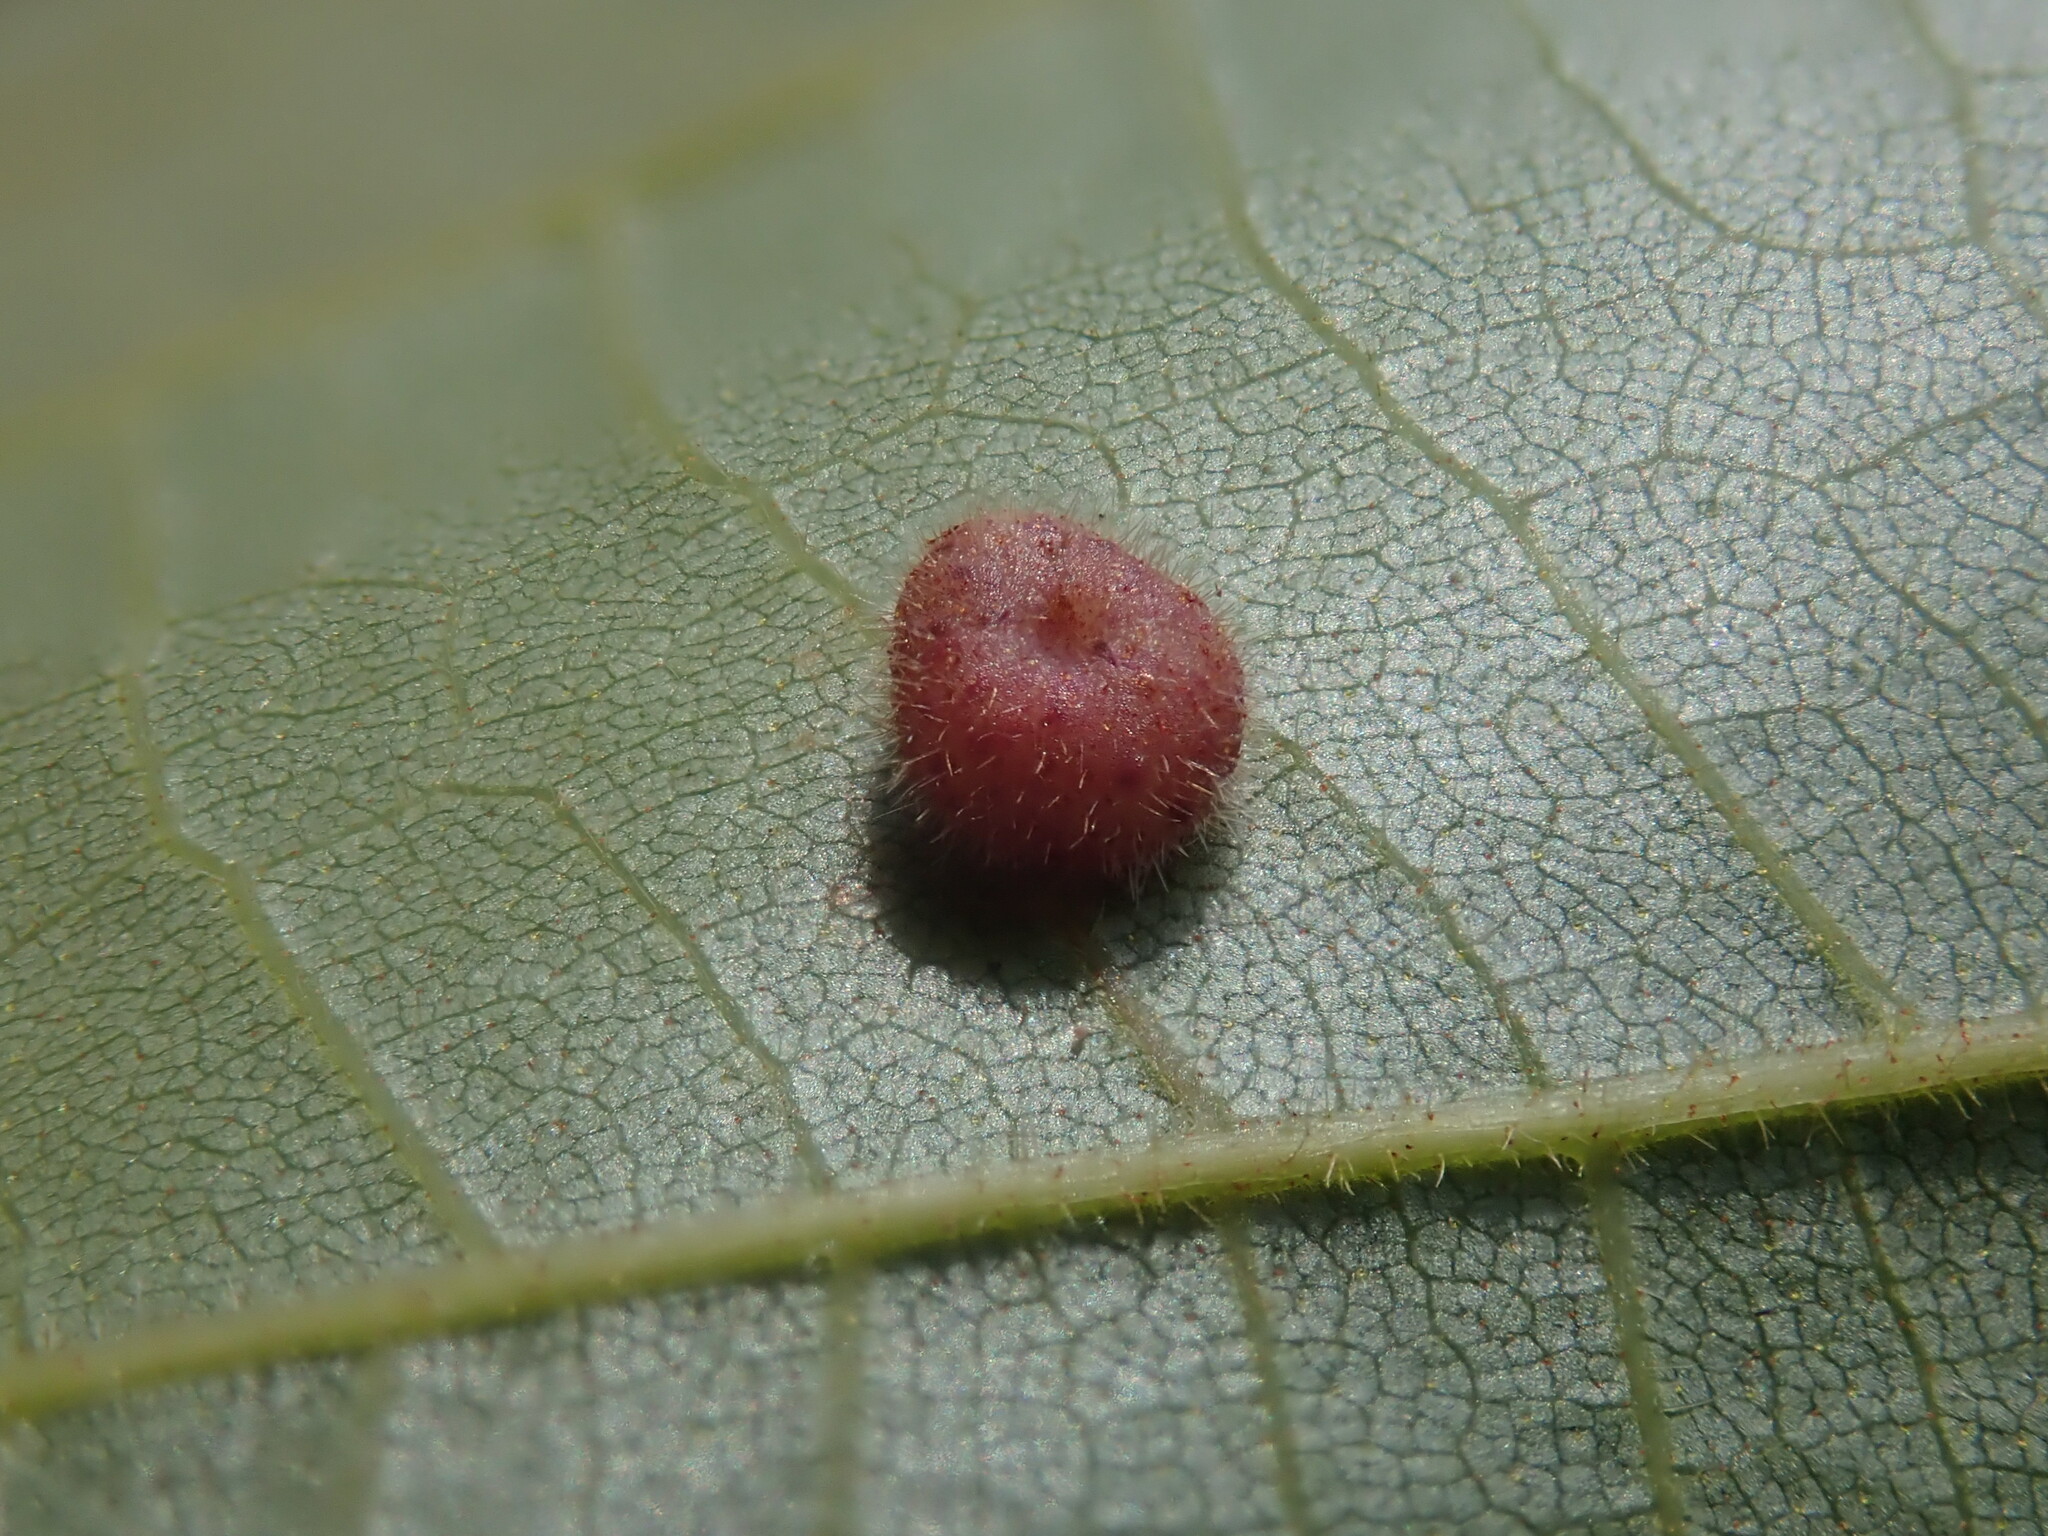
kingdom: Animalia
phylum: Arthropoda
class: Insecta
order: Diptera
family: Cecidomyiidae
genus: Caryomyia
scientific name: Caryomyia thompsoni
